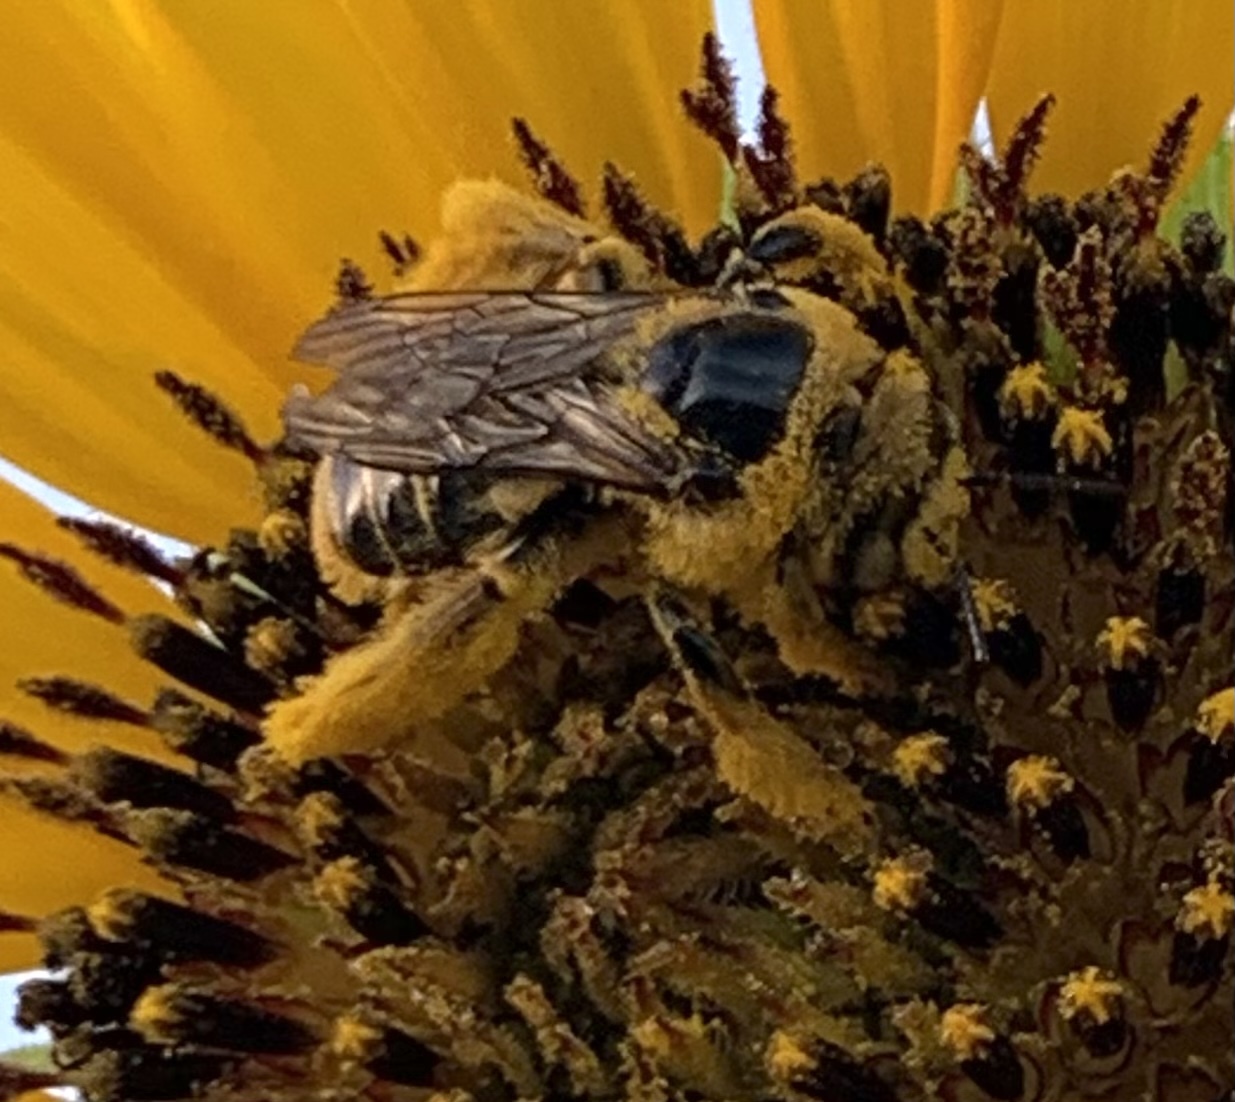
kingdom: Animalia
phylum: Arthropoda
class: Insecta
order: Hymenoptera
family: Apidae
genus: Diadasia
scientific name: Diadasia enavata
